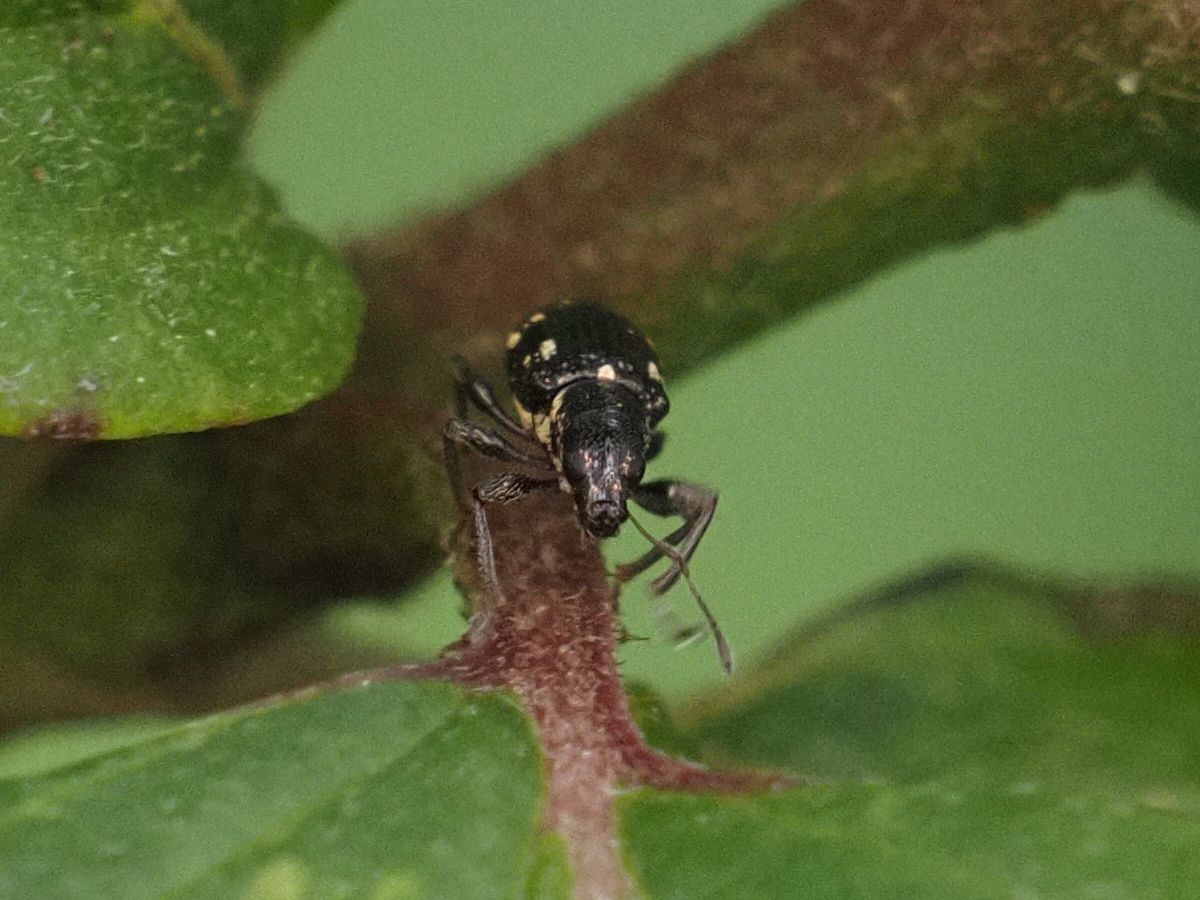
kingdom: Animalia
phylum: Arthropoda
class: Insecta
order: Coleoptera
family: Curculionidae
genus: Polydrusus
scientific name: Polydrusus picus
